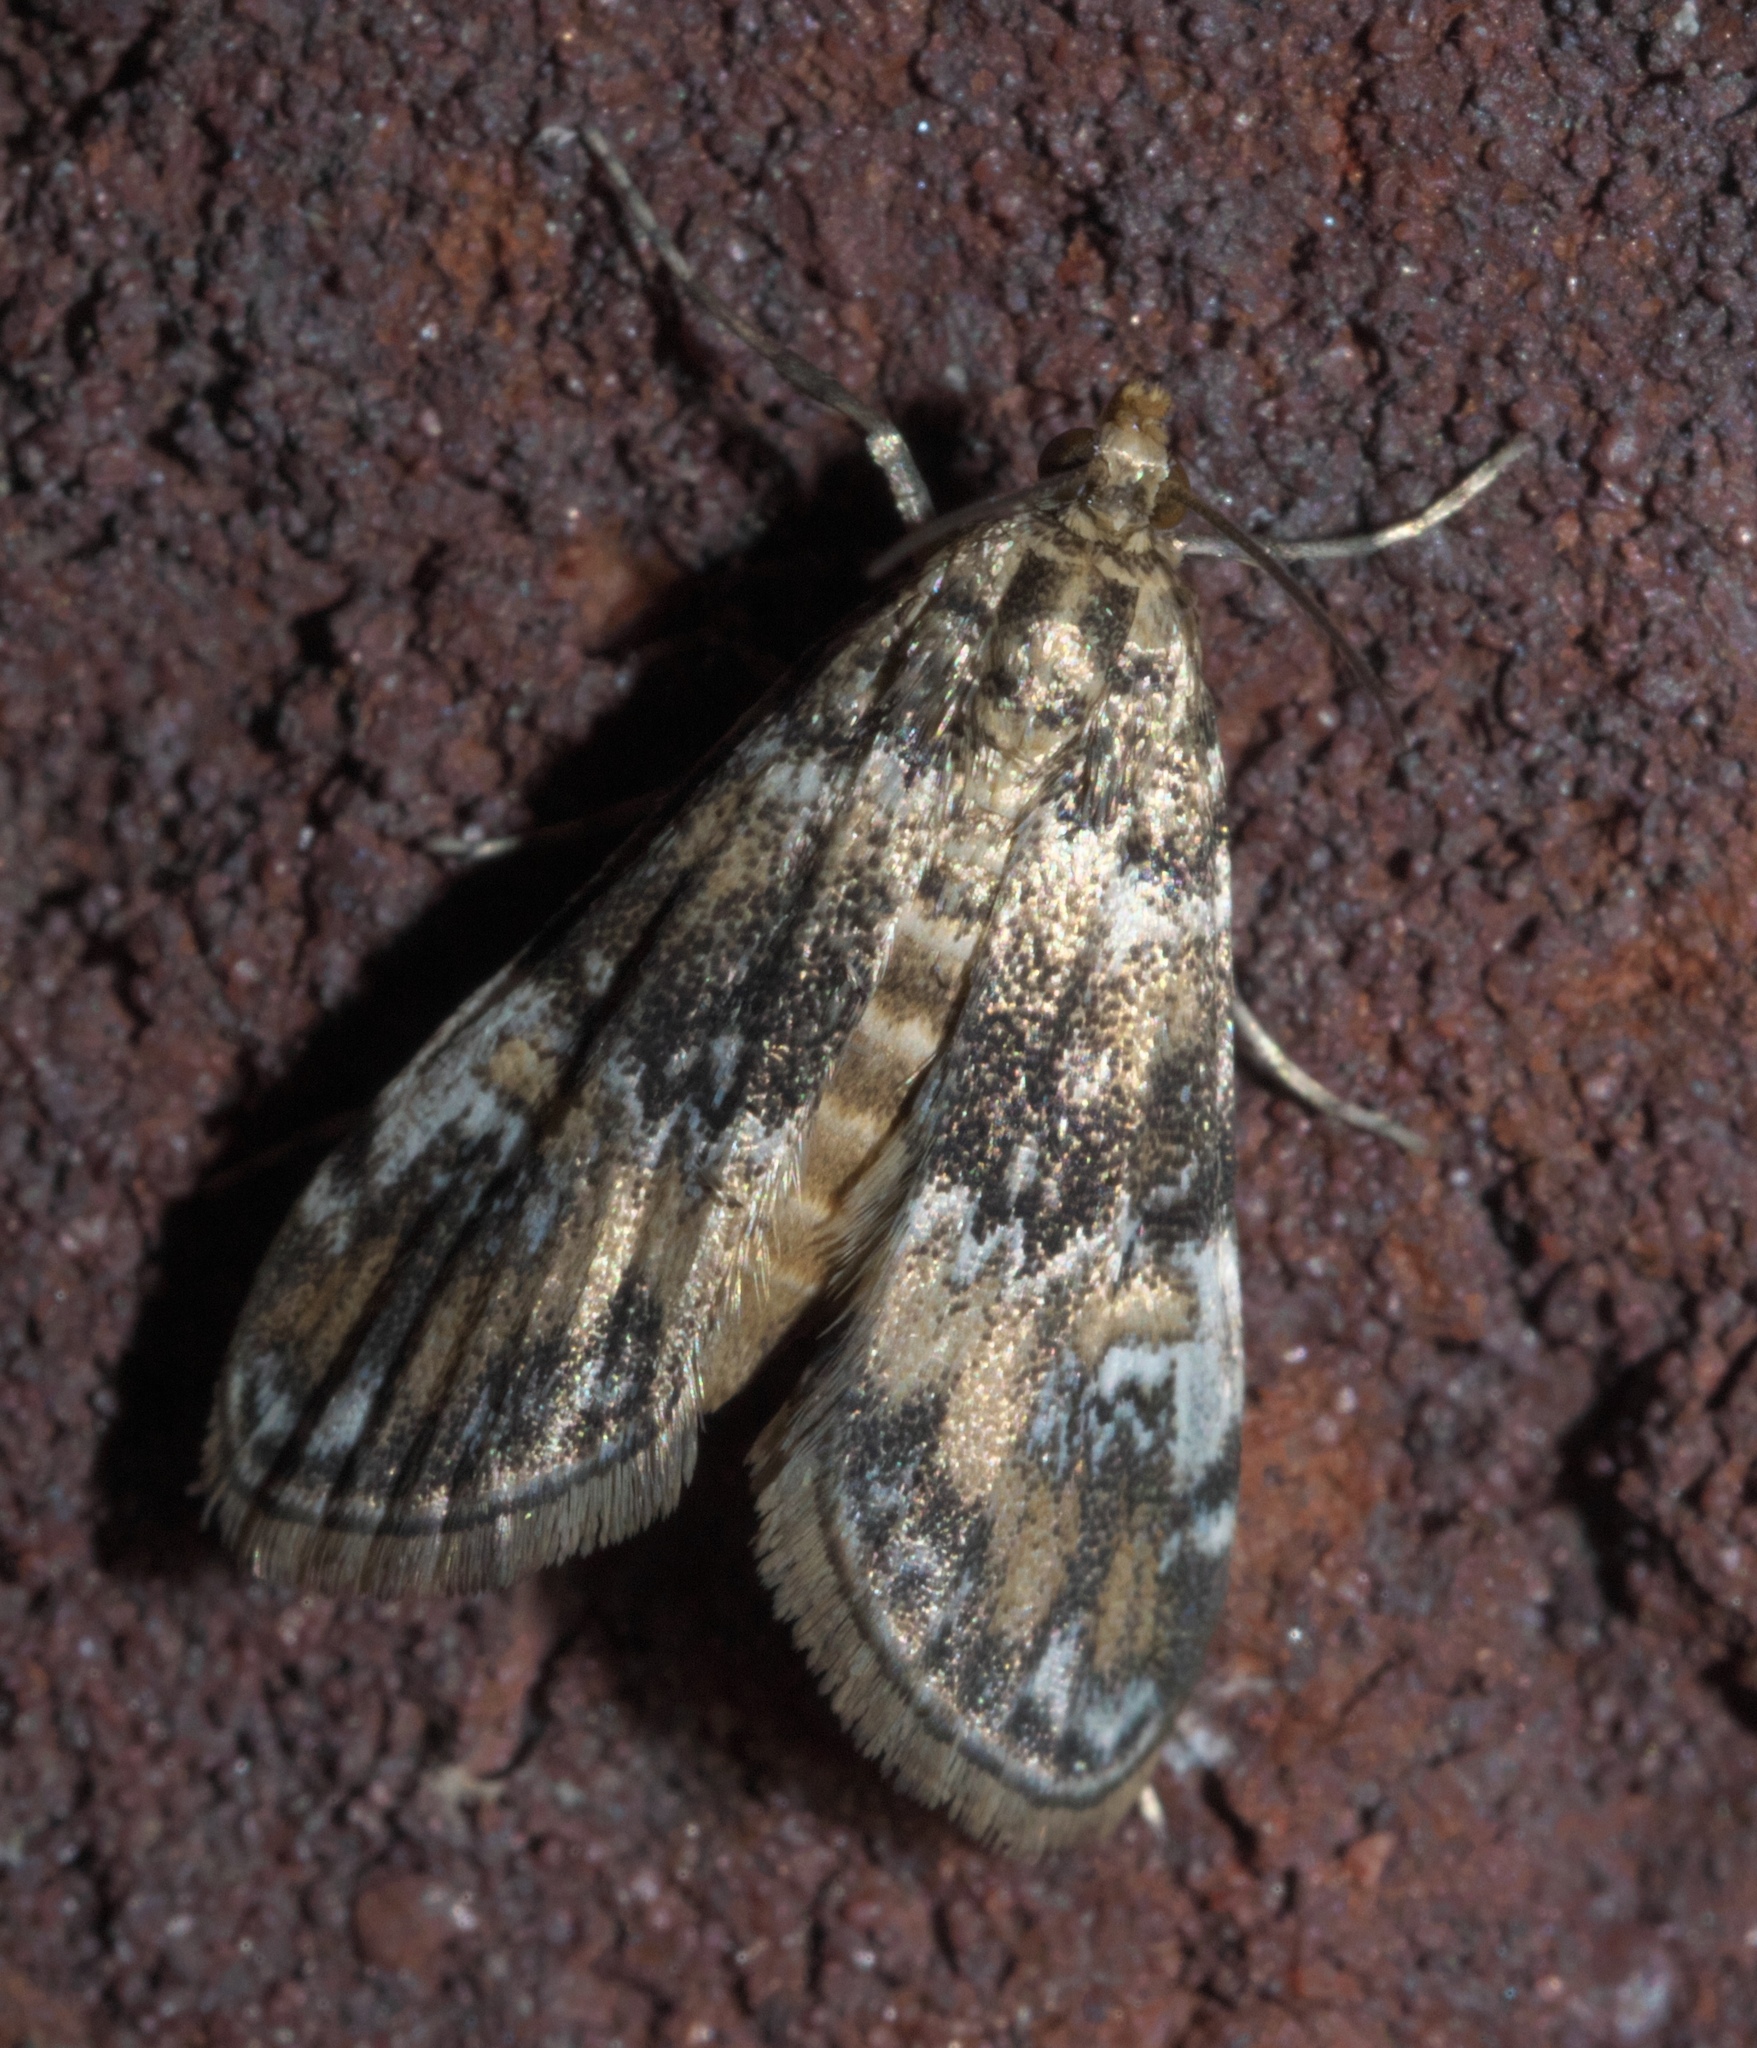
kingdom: Animalia
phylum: Arthropoda
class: Insecta
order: Lepidoptera
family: Crambidae
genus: Elophila
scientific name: Elophila obliteralis
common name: Waterlily leafcutter moth
